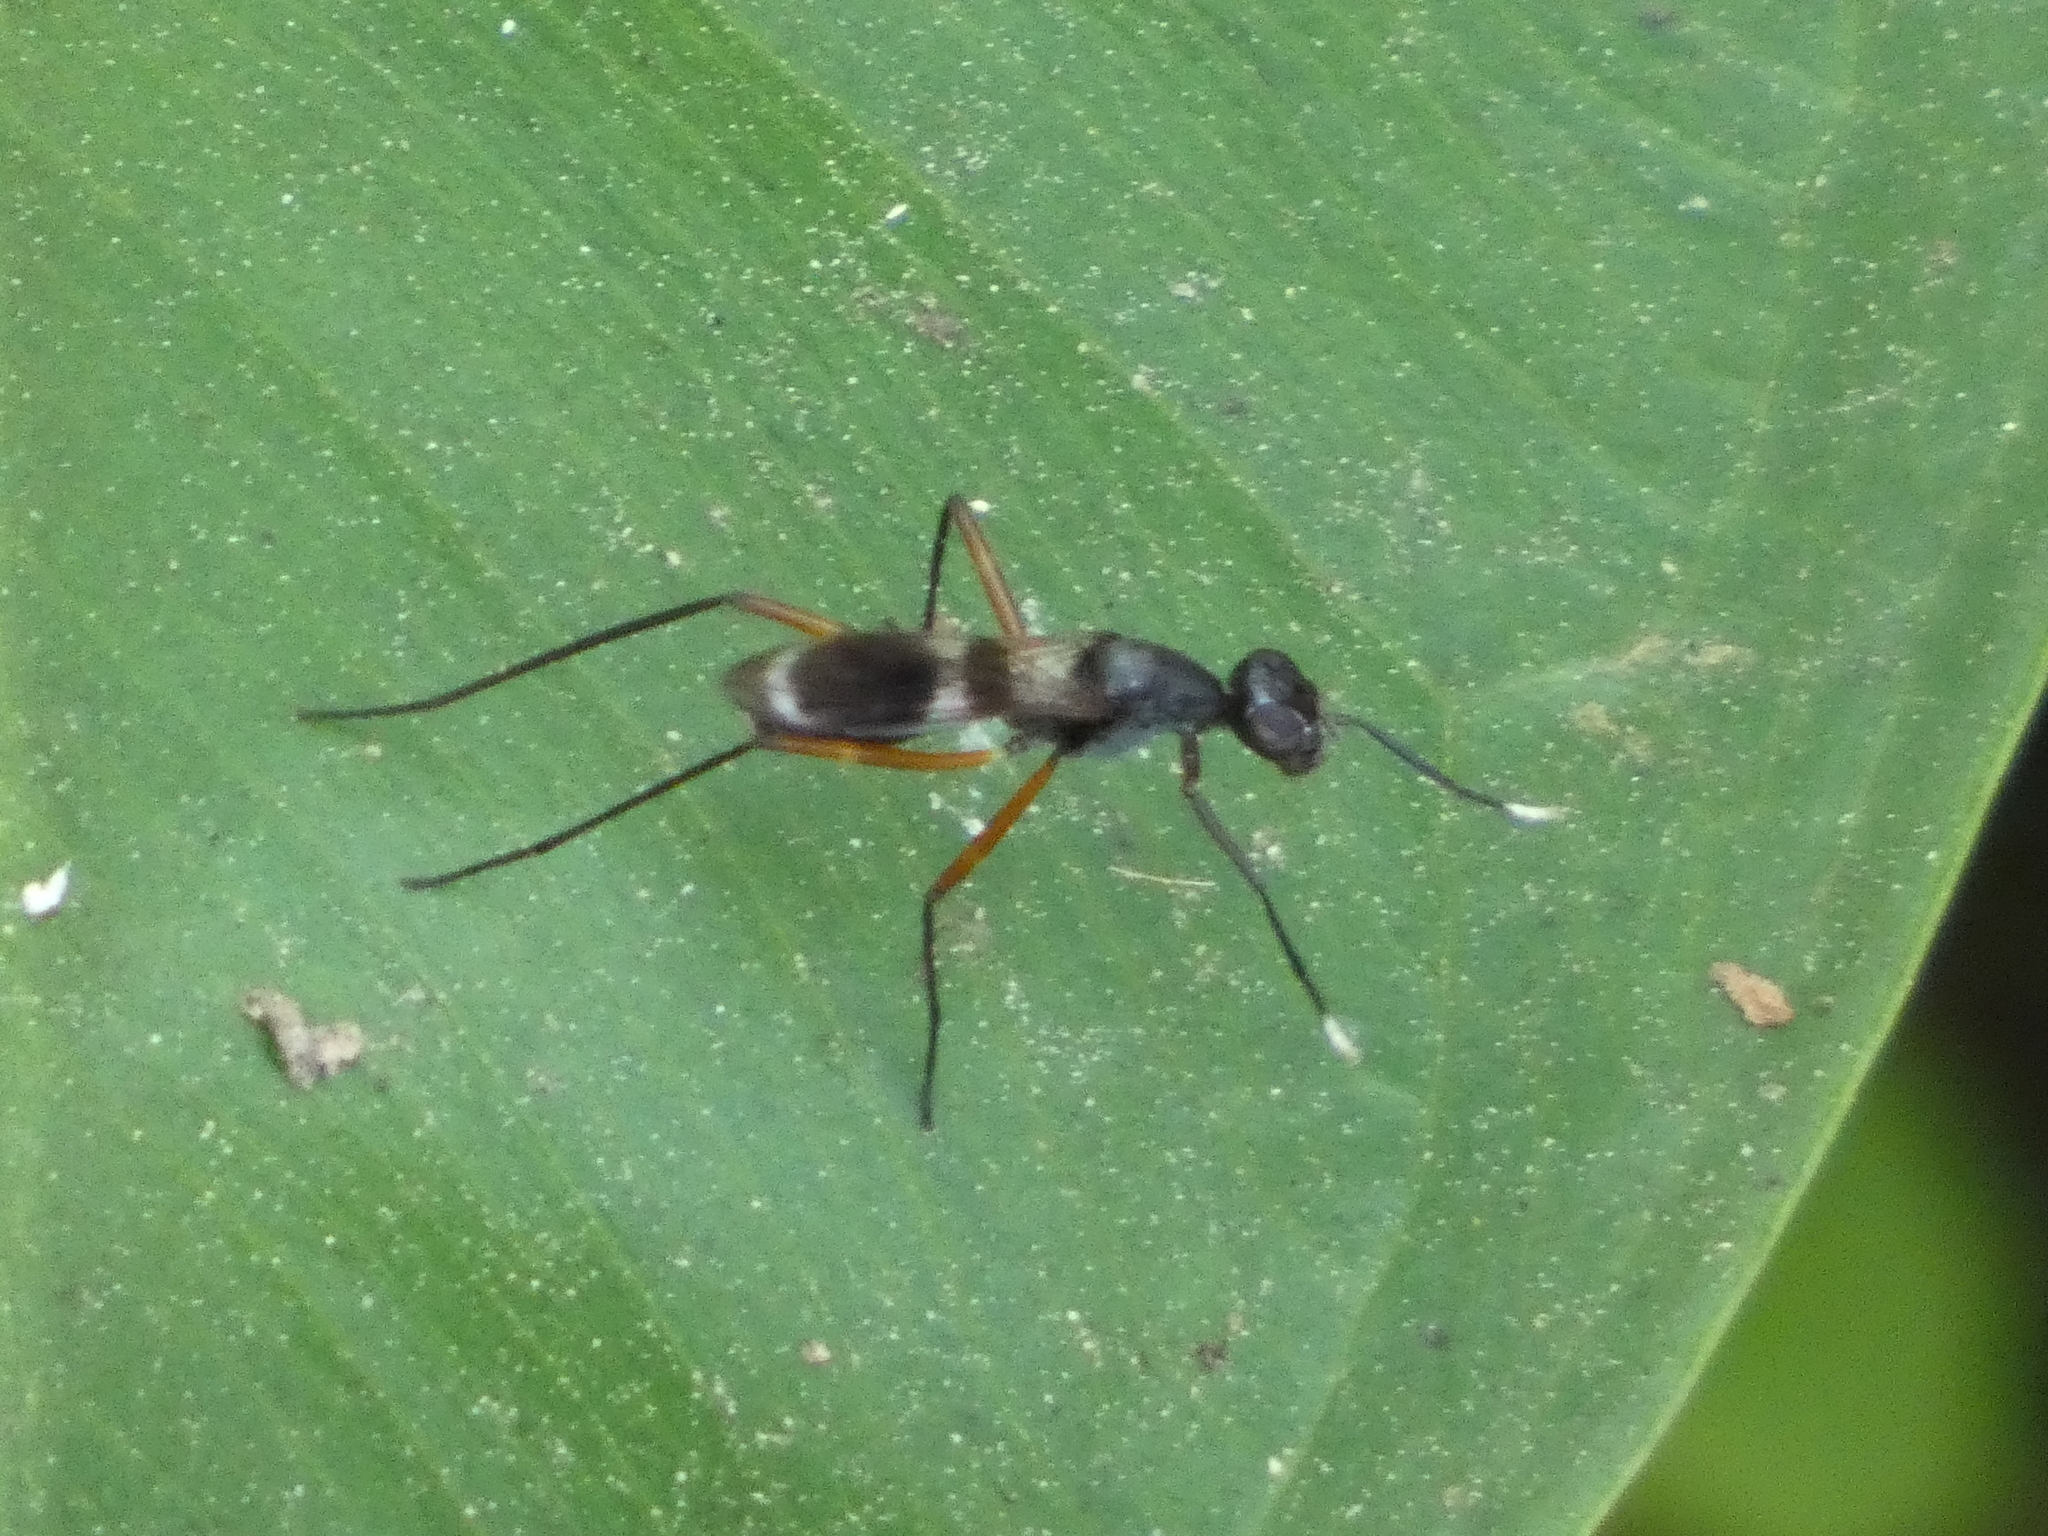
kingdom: Animalia
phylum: Arthropoda
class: Insecta
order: Diptera
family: Micropezidae
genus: Taeniaptera
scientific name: Taeniaptera trivittata
